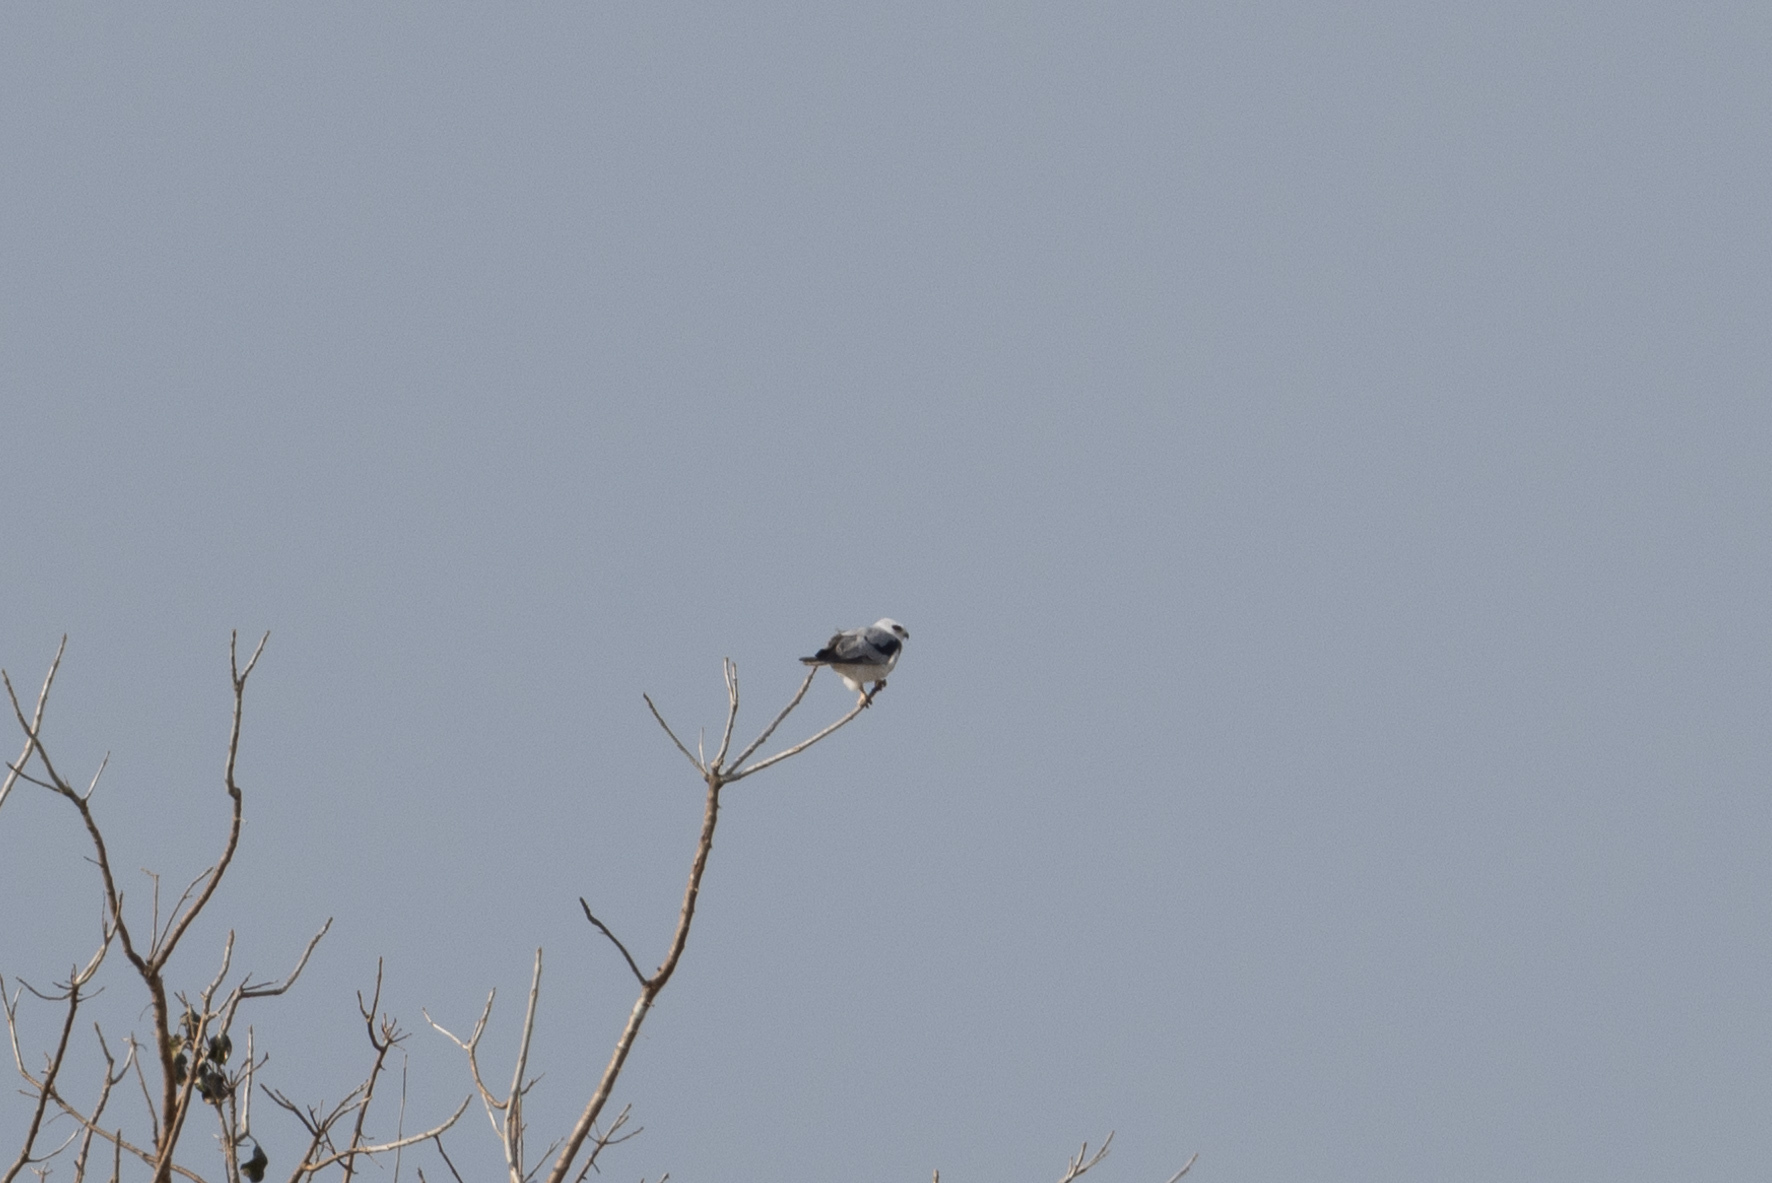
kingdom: Animalia
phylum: Chordata
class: Aves
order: Accipitriformes
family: Accipitridae
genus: Elanus
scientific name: Elanus leucurus
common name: White-tailed kite
